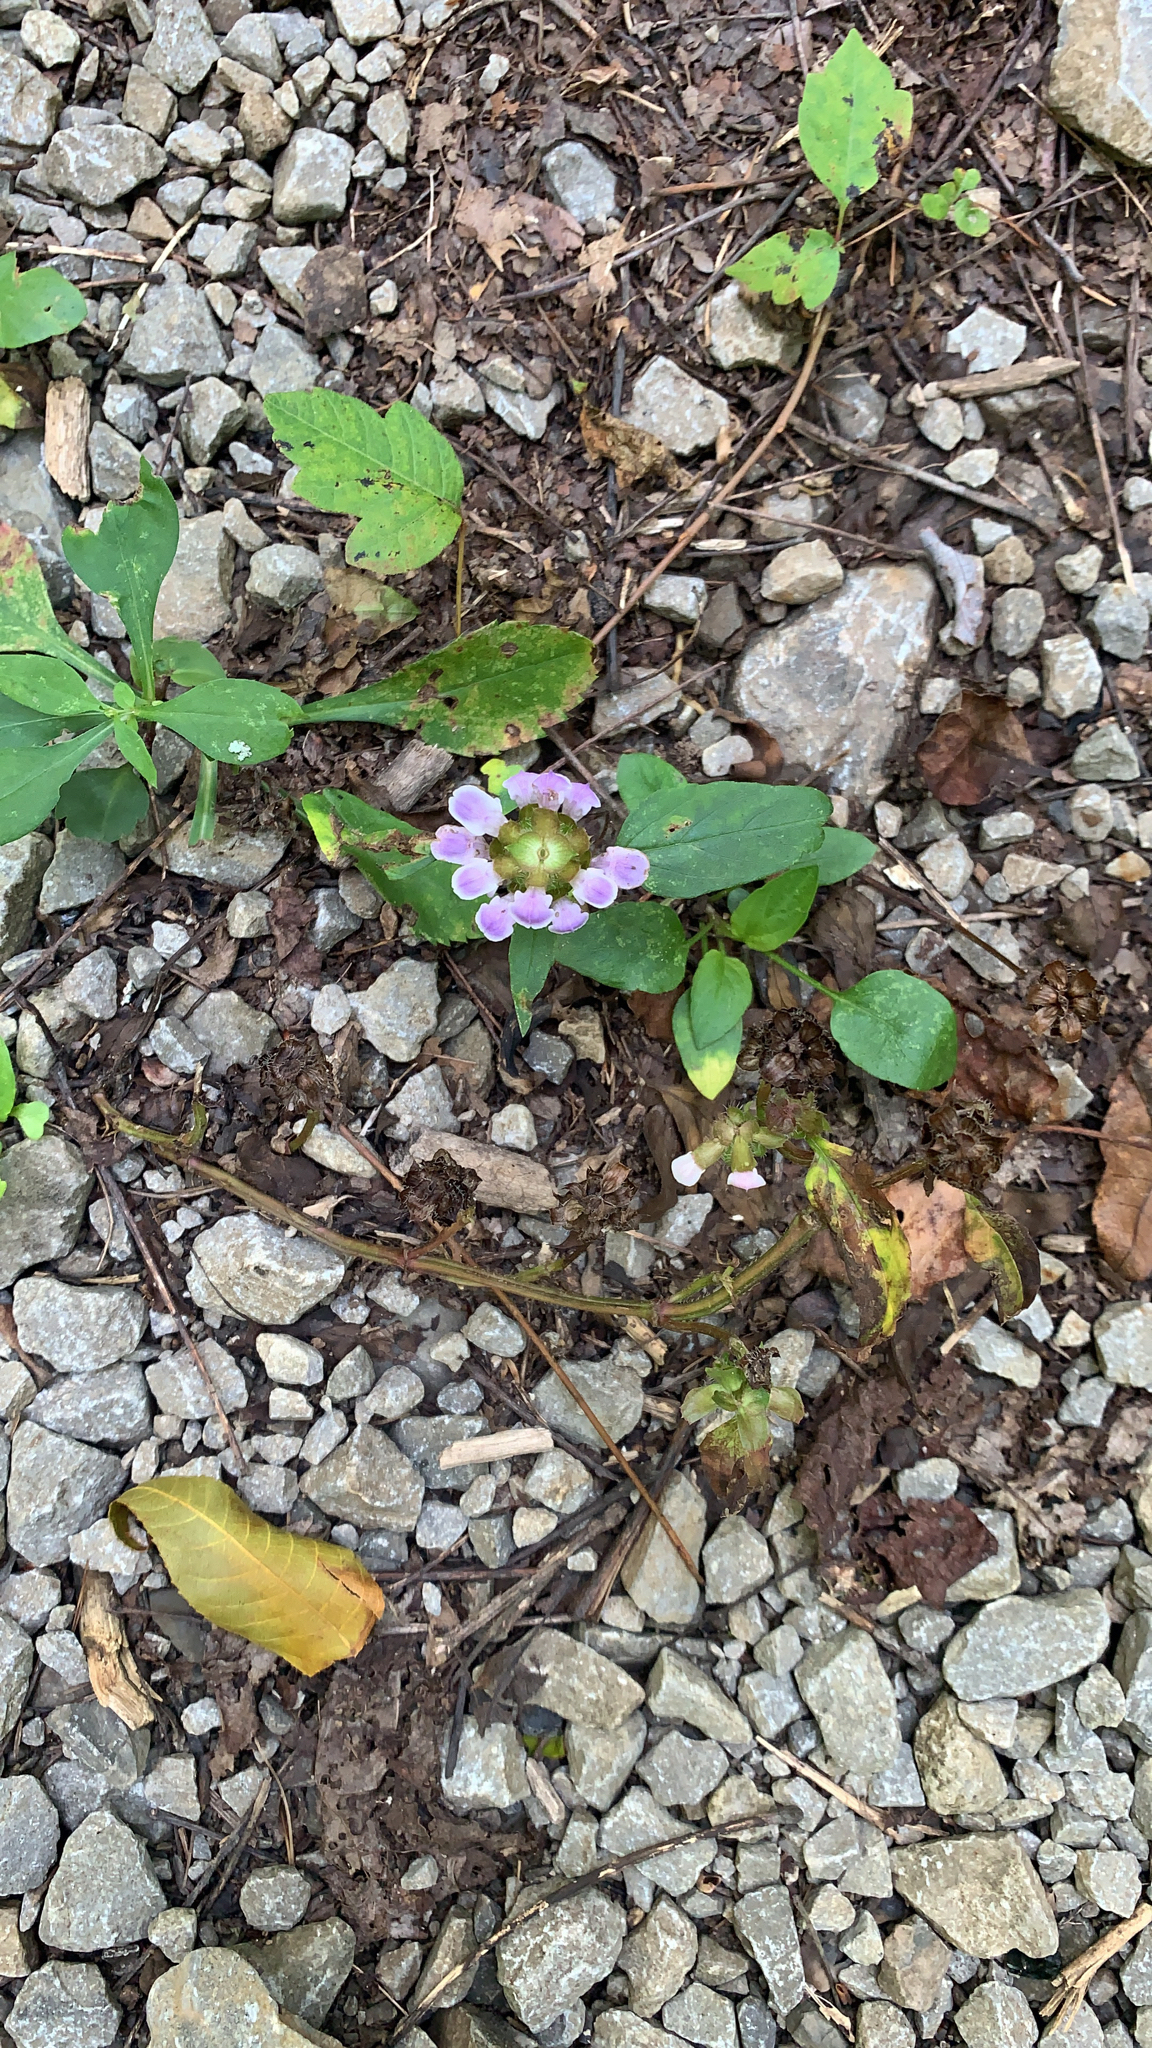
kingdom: Plantae
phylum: Tracheophyta
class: Magnoliopsida
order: Lamiales
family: Lamiaceae
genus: Prunella
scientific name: Prunella vulgaris
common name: Heal-all
